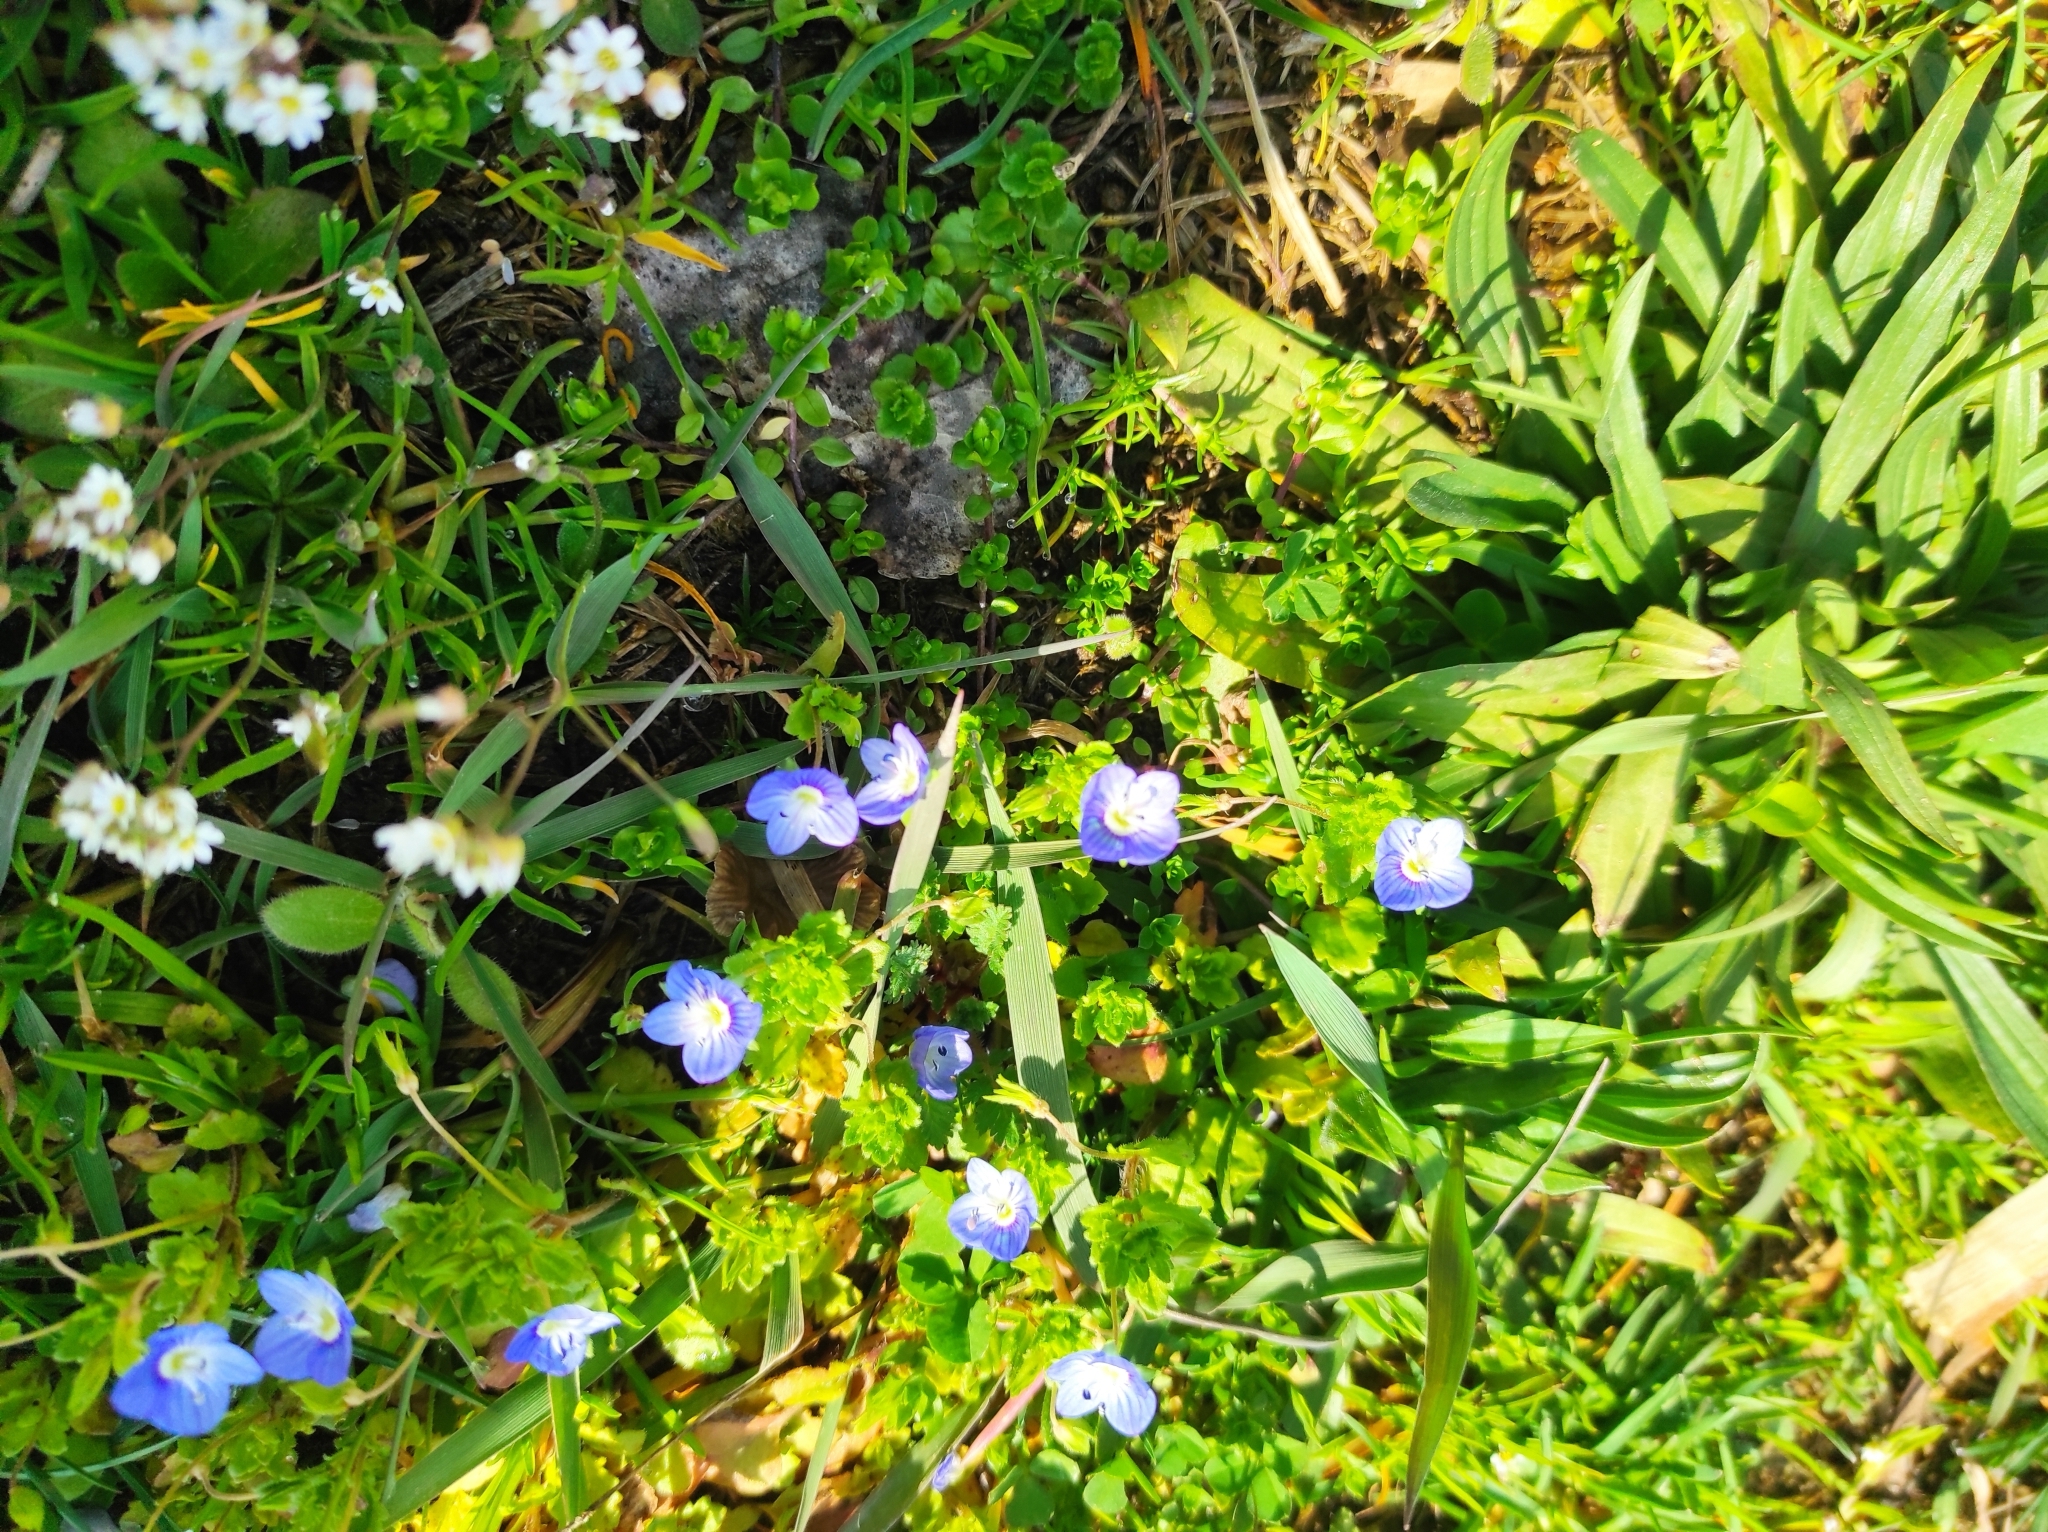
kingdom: Plantae
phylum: Tracheophyta
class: Magnoliopsida
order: Lamiales
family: Plantaginaceae
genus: Veronica
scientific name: Veronica persica
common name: Common field-speedwell
